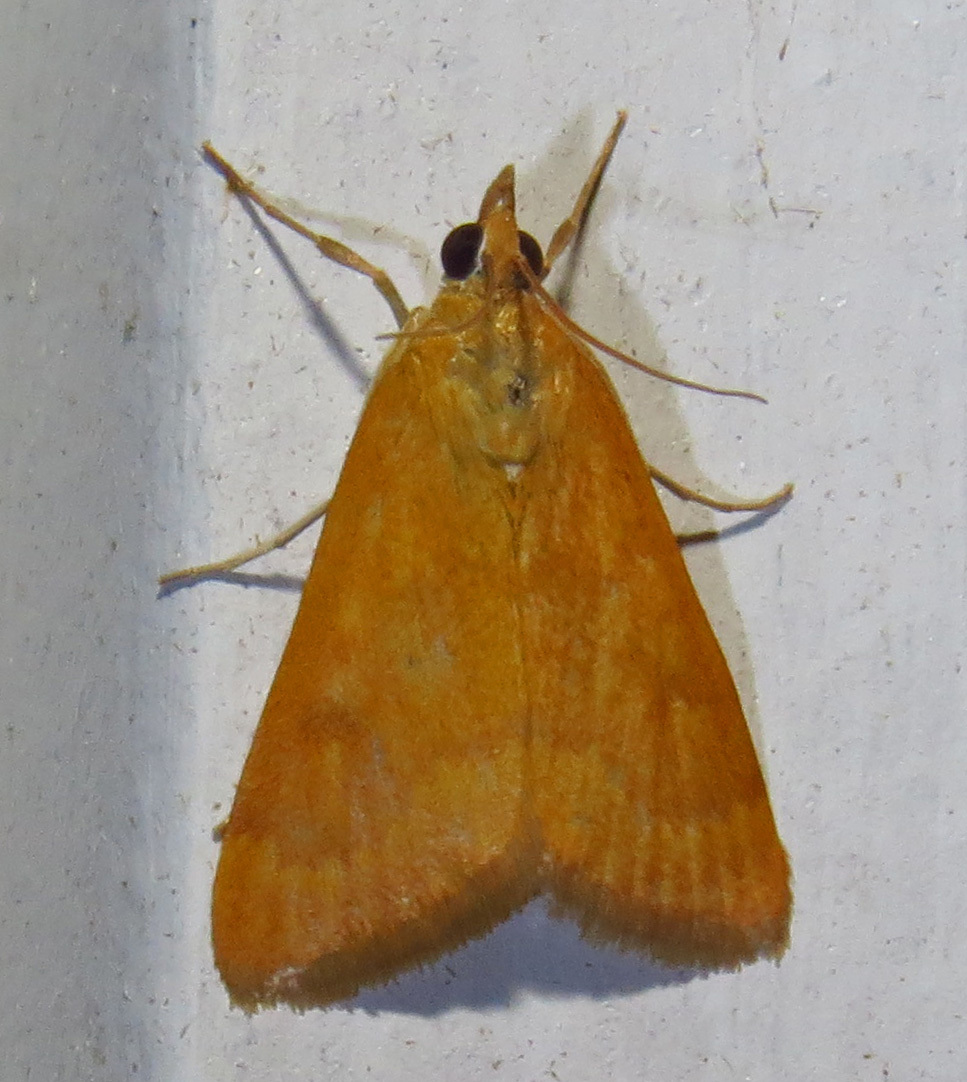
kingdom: Animalia
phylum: Arthropoda
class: Insecta
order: Lepidoptera
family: Crambidae
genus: Udea
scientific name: Udea rubigalis
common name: Celery leaftier moth
